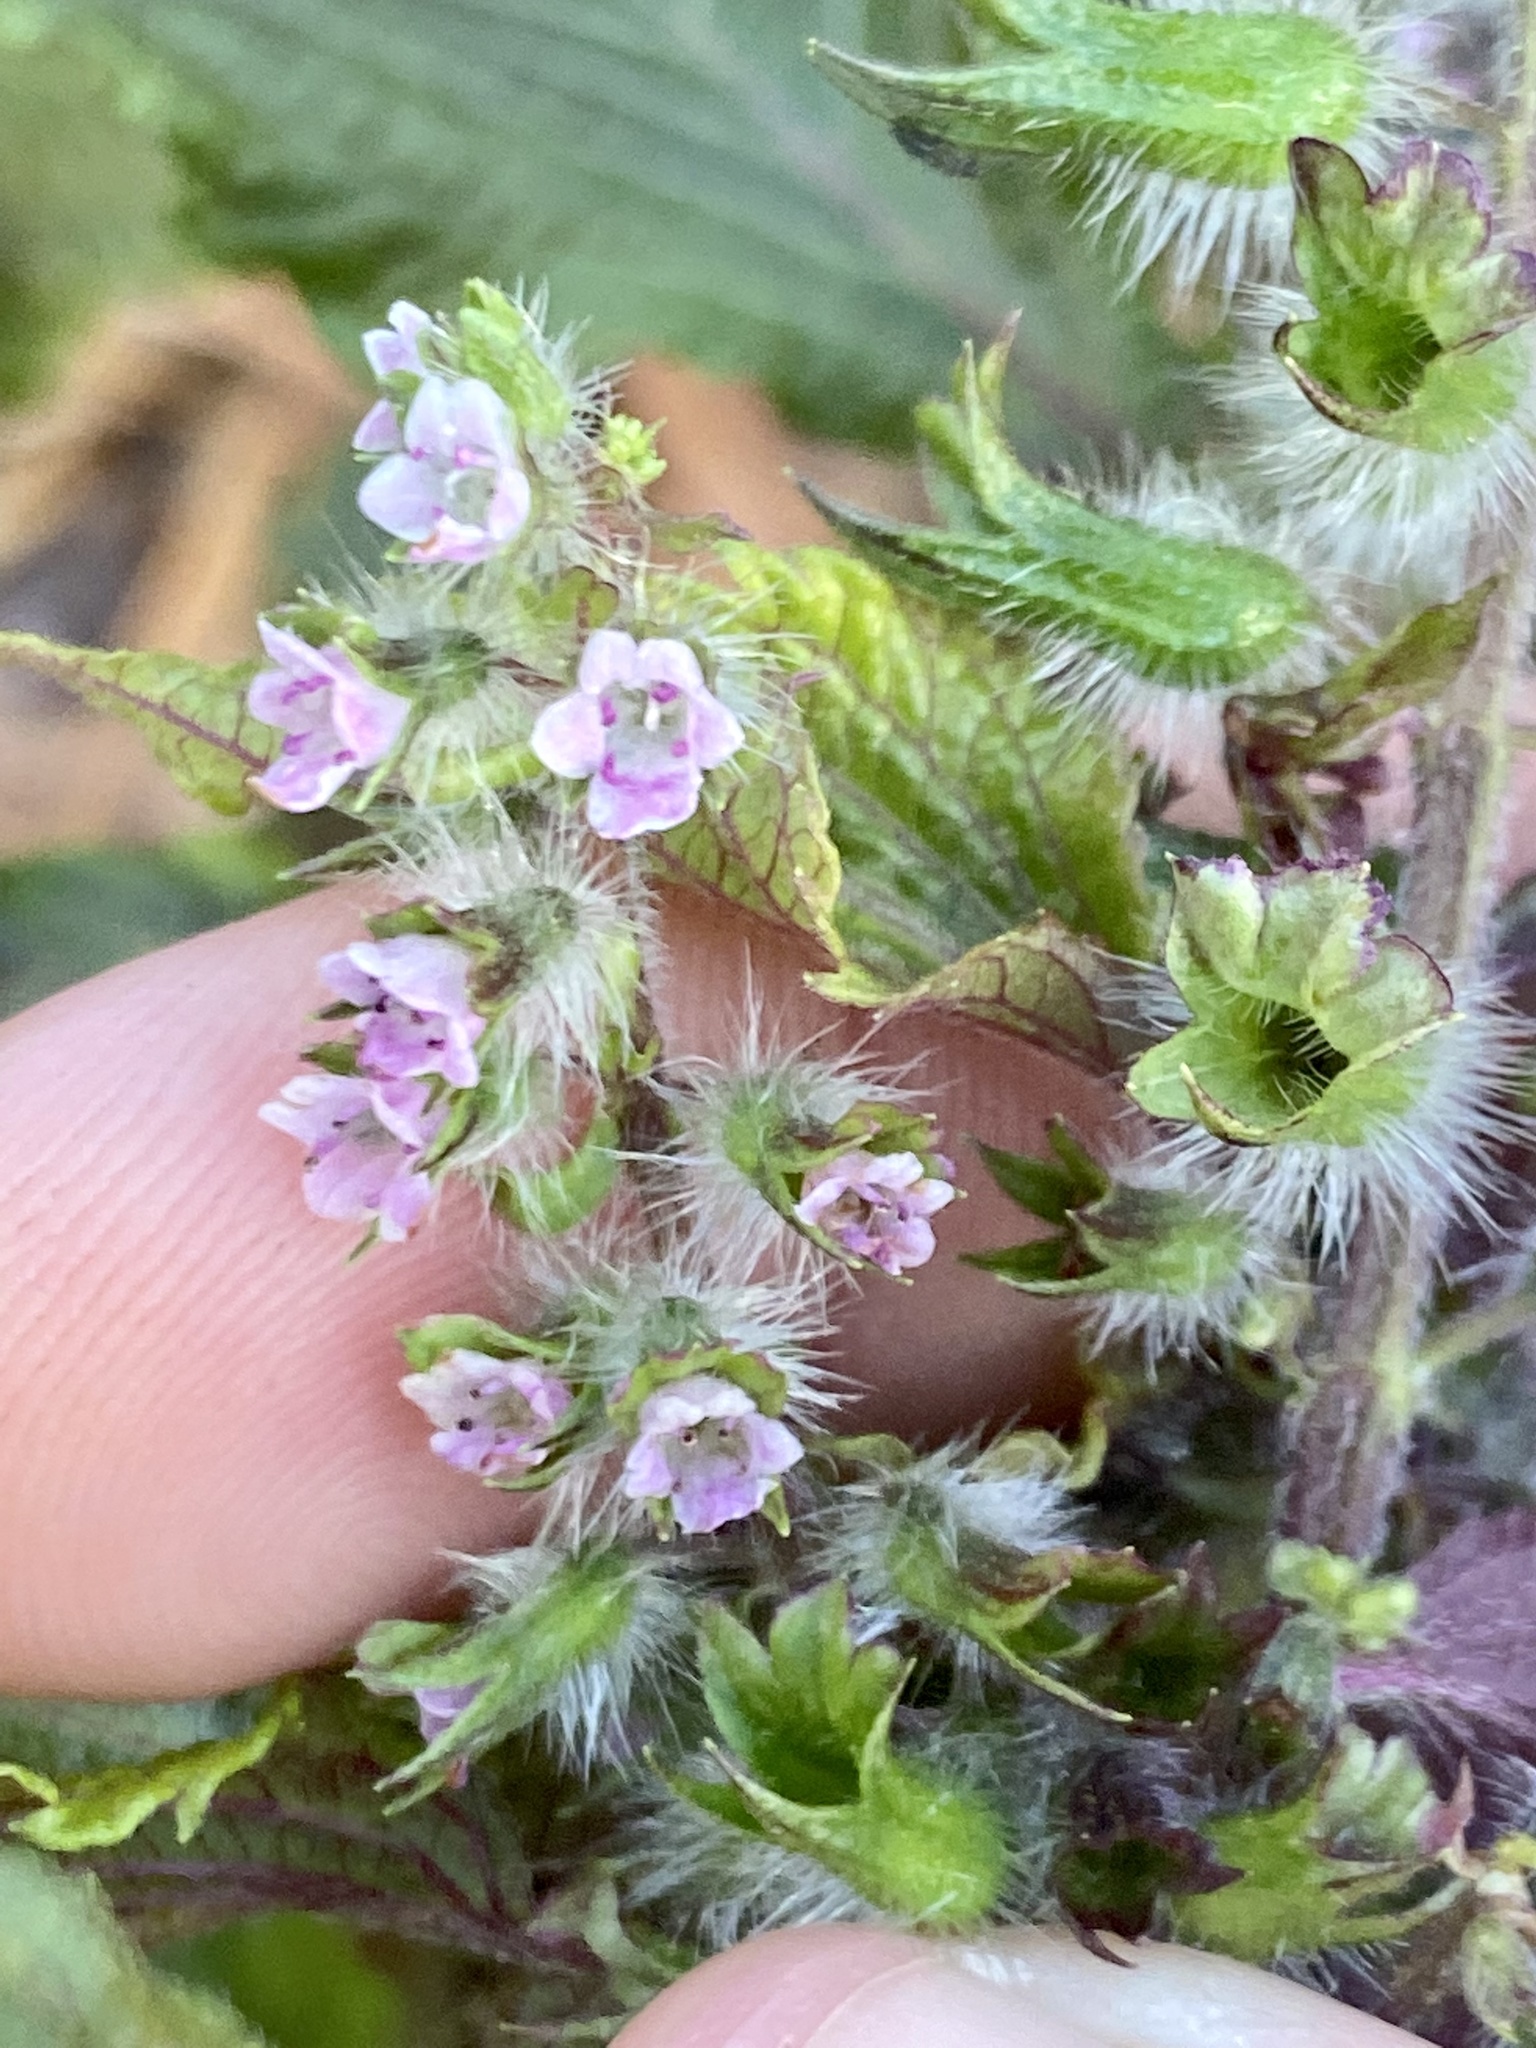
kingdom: Plantae
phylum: Tracheophyta
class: Magnoliopsida
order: Lamiales
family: Lamiaceae
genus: Perilla
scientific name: Perilla frutescens
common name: Perilla
